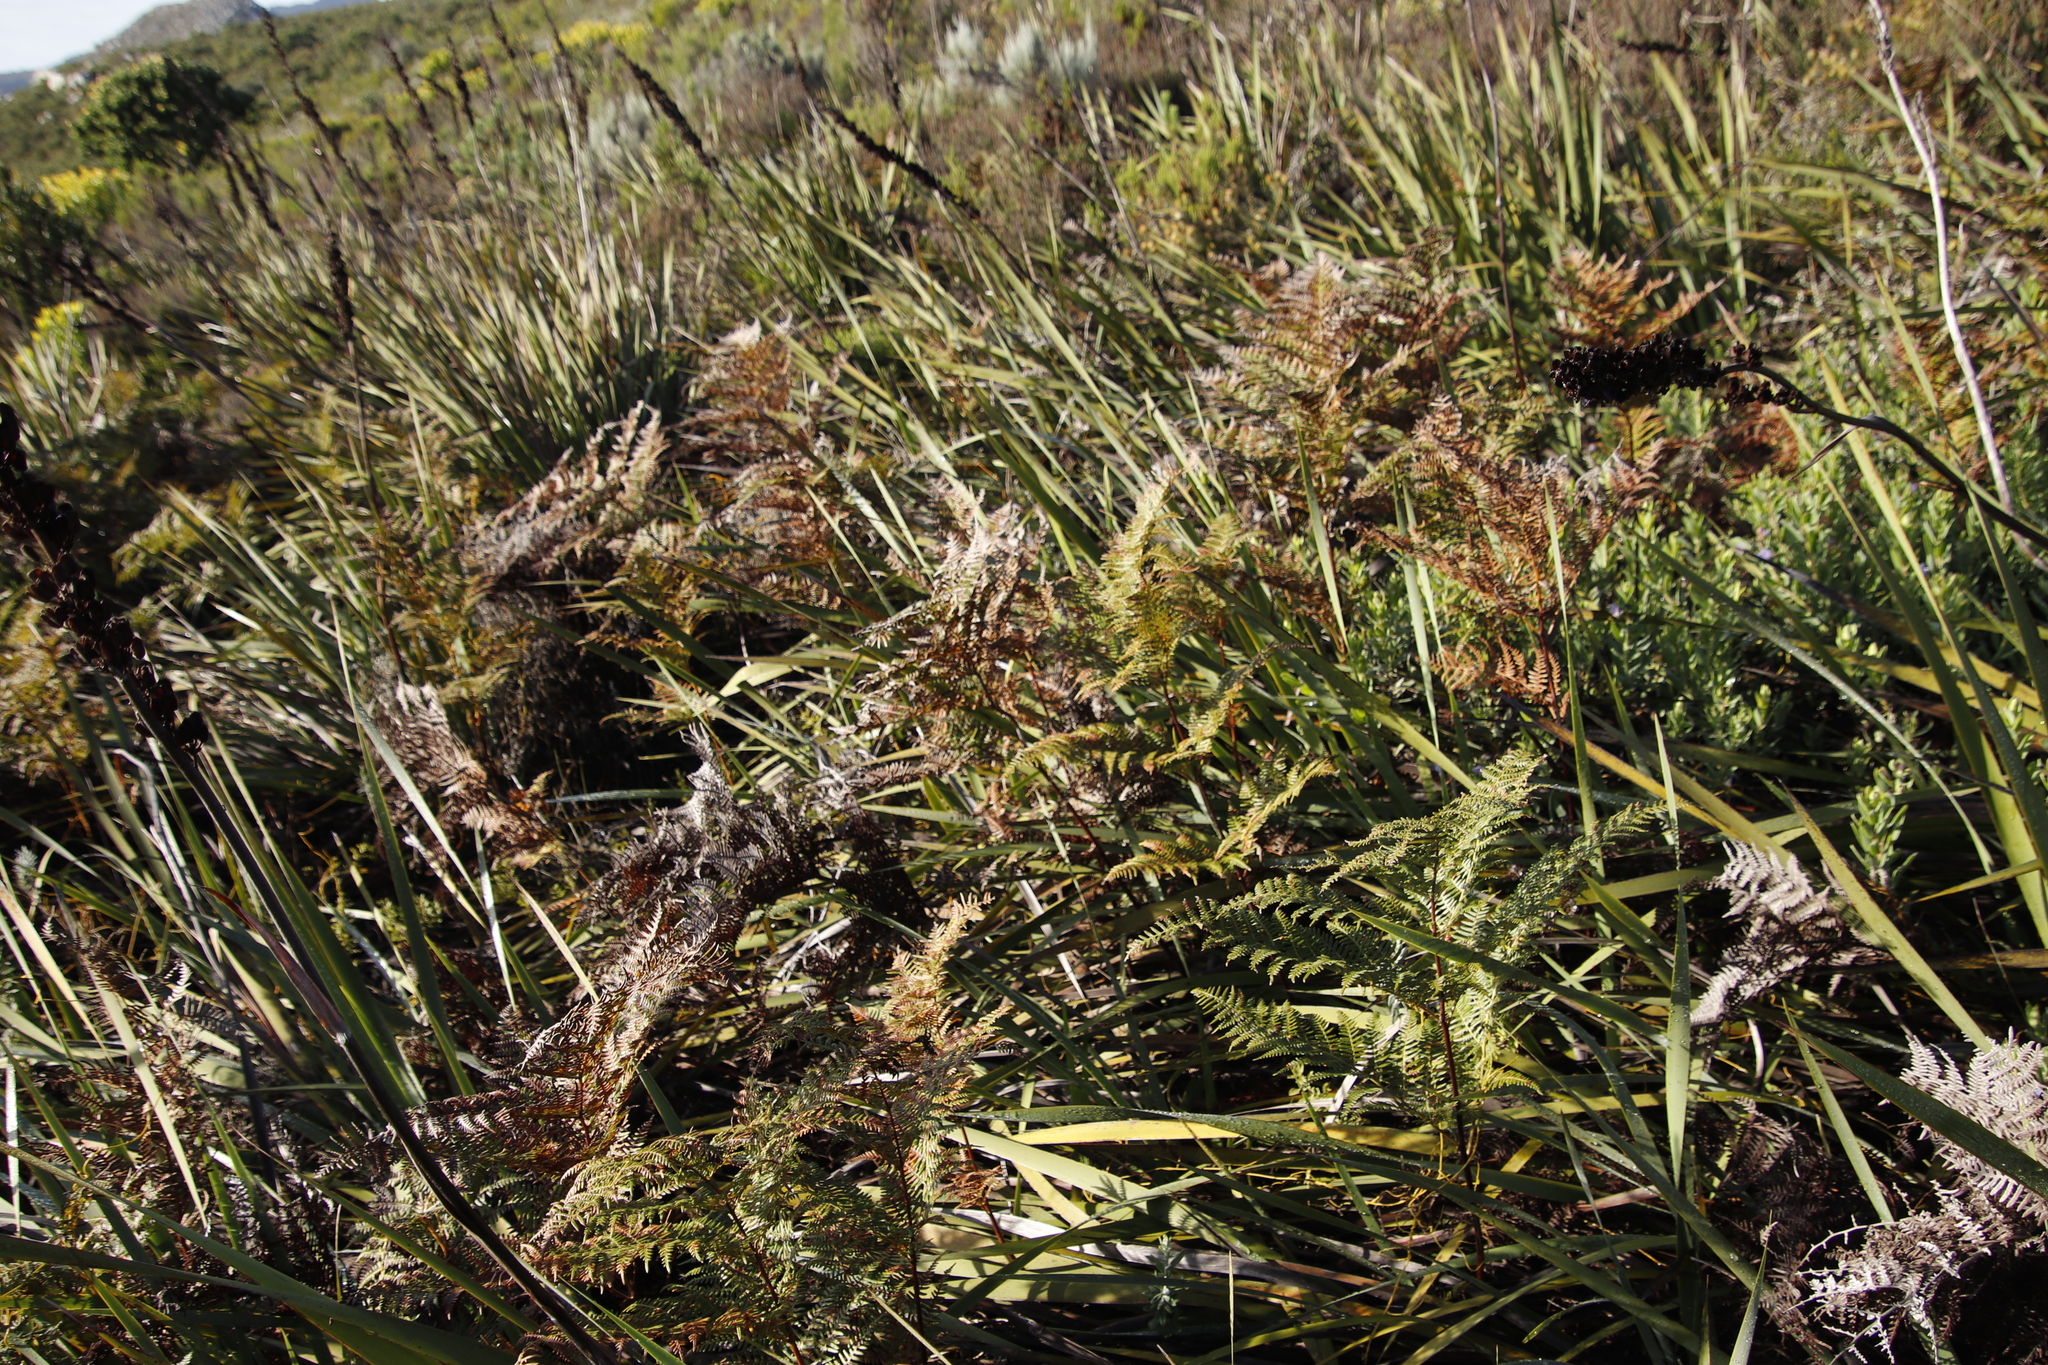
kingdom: Plantae
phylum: Tracheophyta
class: Polypodiopsida
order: Polypodiales
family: Dennstaedtiaceae
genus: Pteridium
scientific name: Pteridium aquilinum
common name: Bracken
